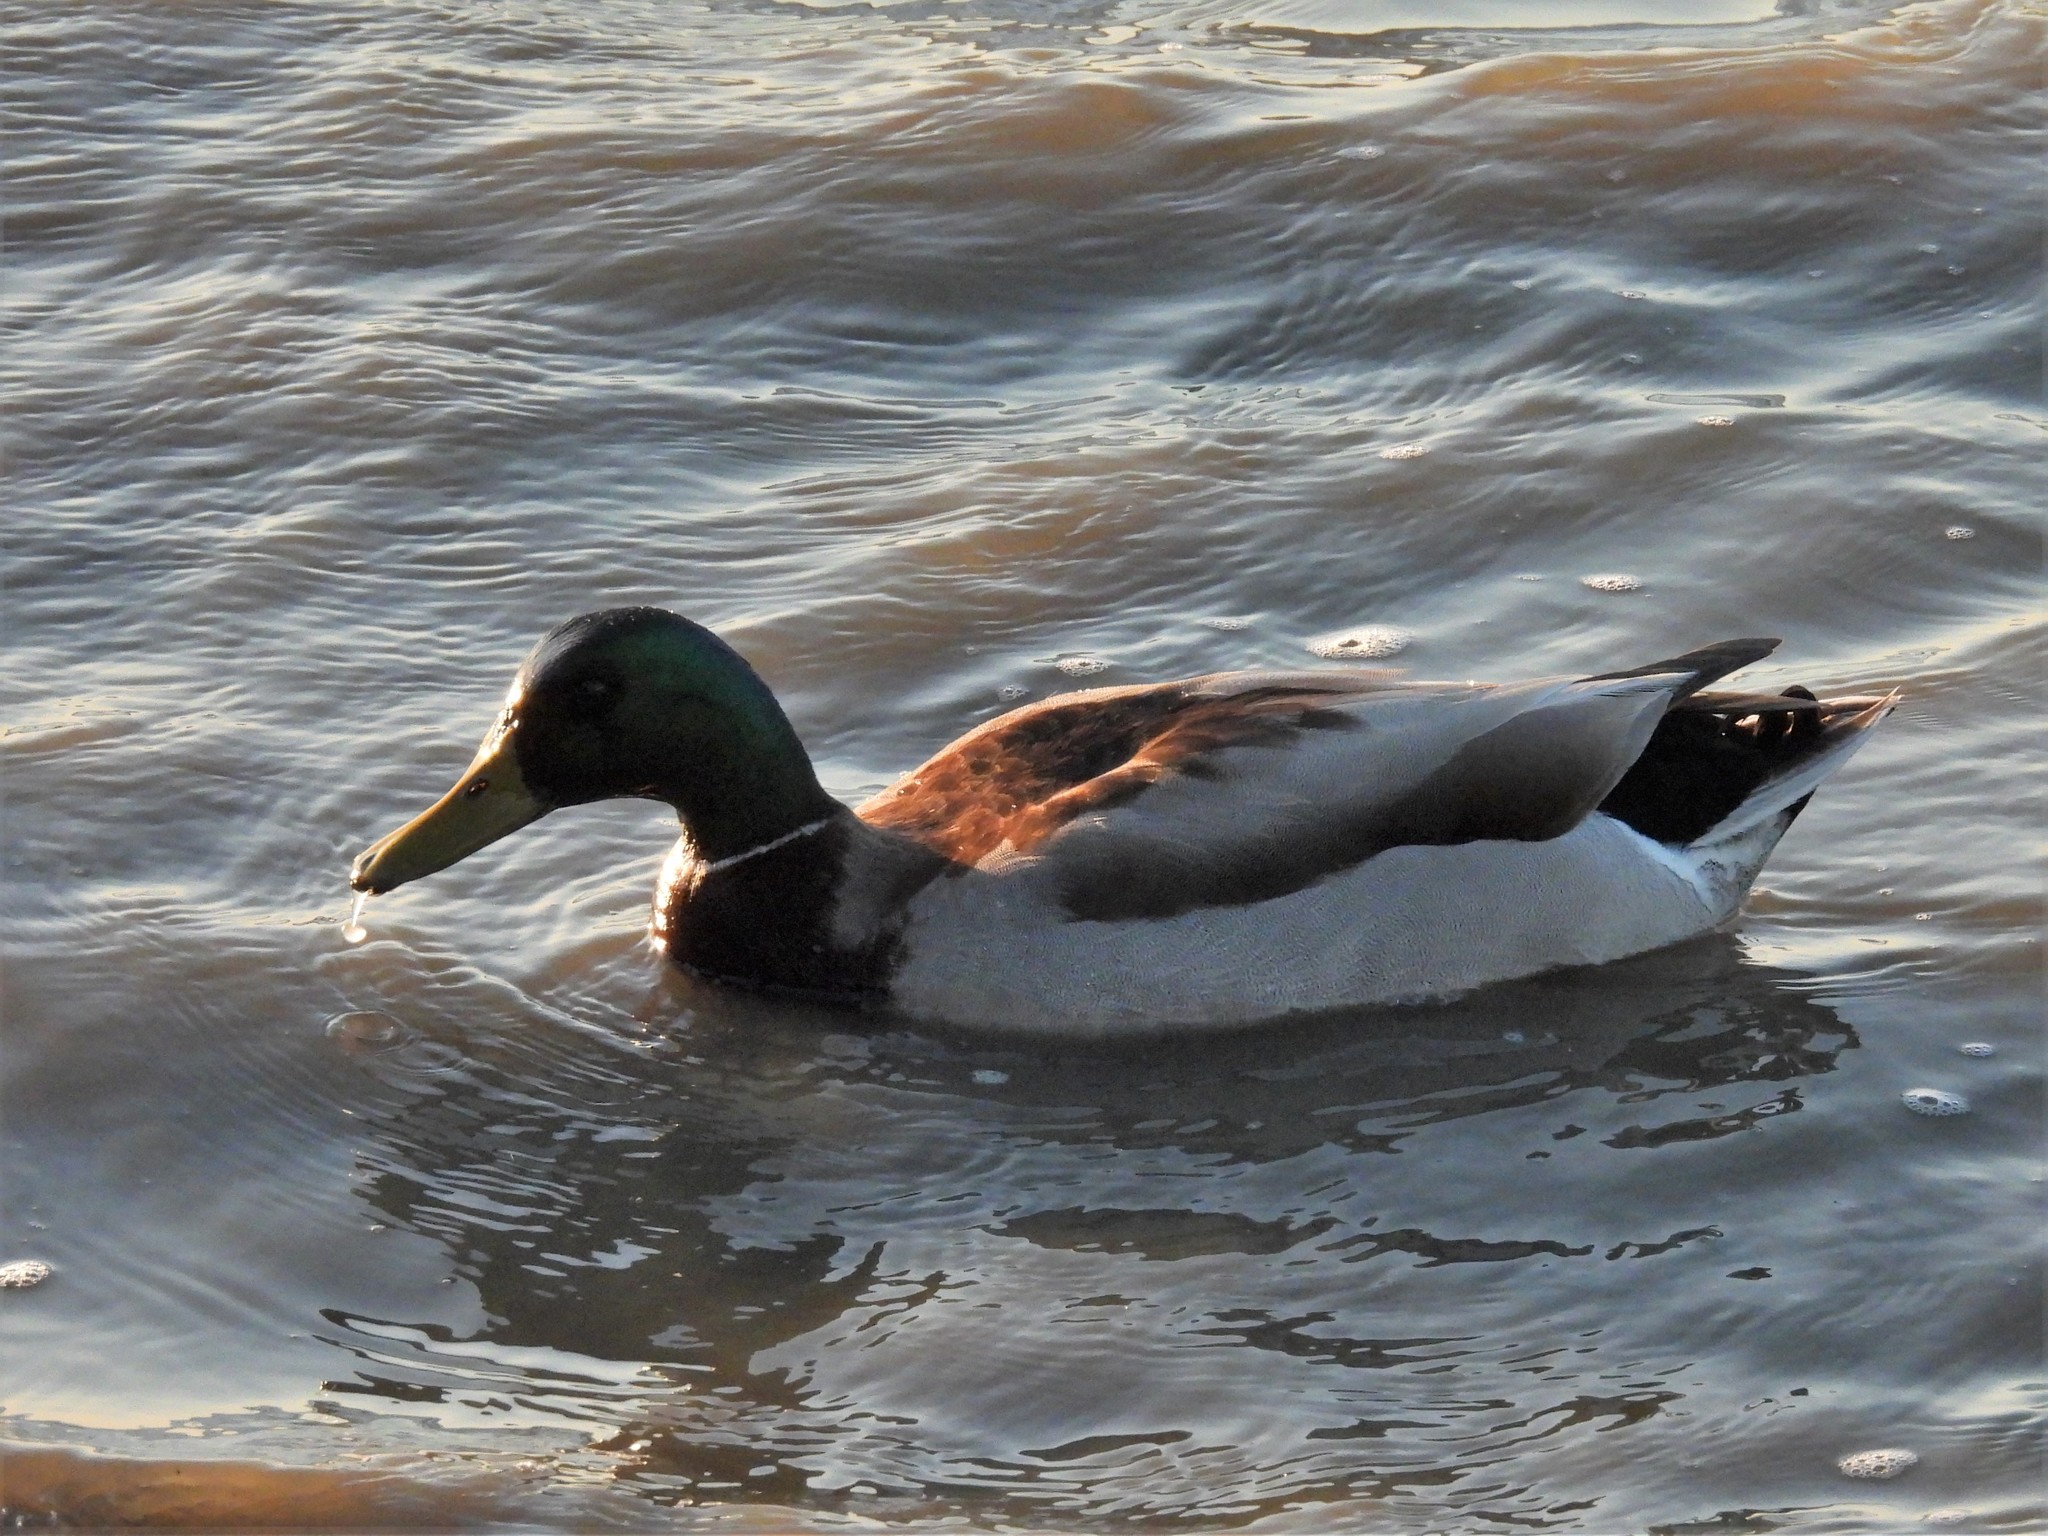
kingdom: Animalia
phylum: Chordata
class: Aves
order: Anseriformes
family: Anatidae
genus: Anas
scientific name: Anas platyrhynchos
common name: Mallard
